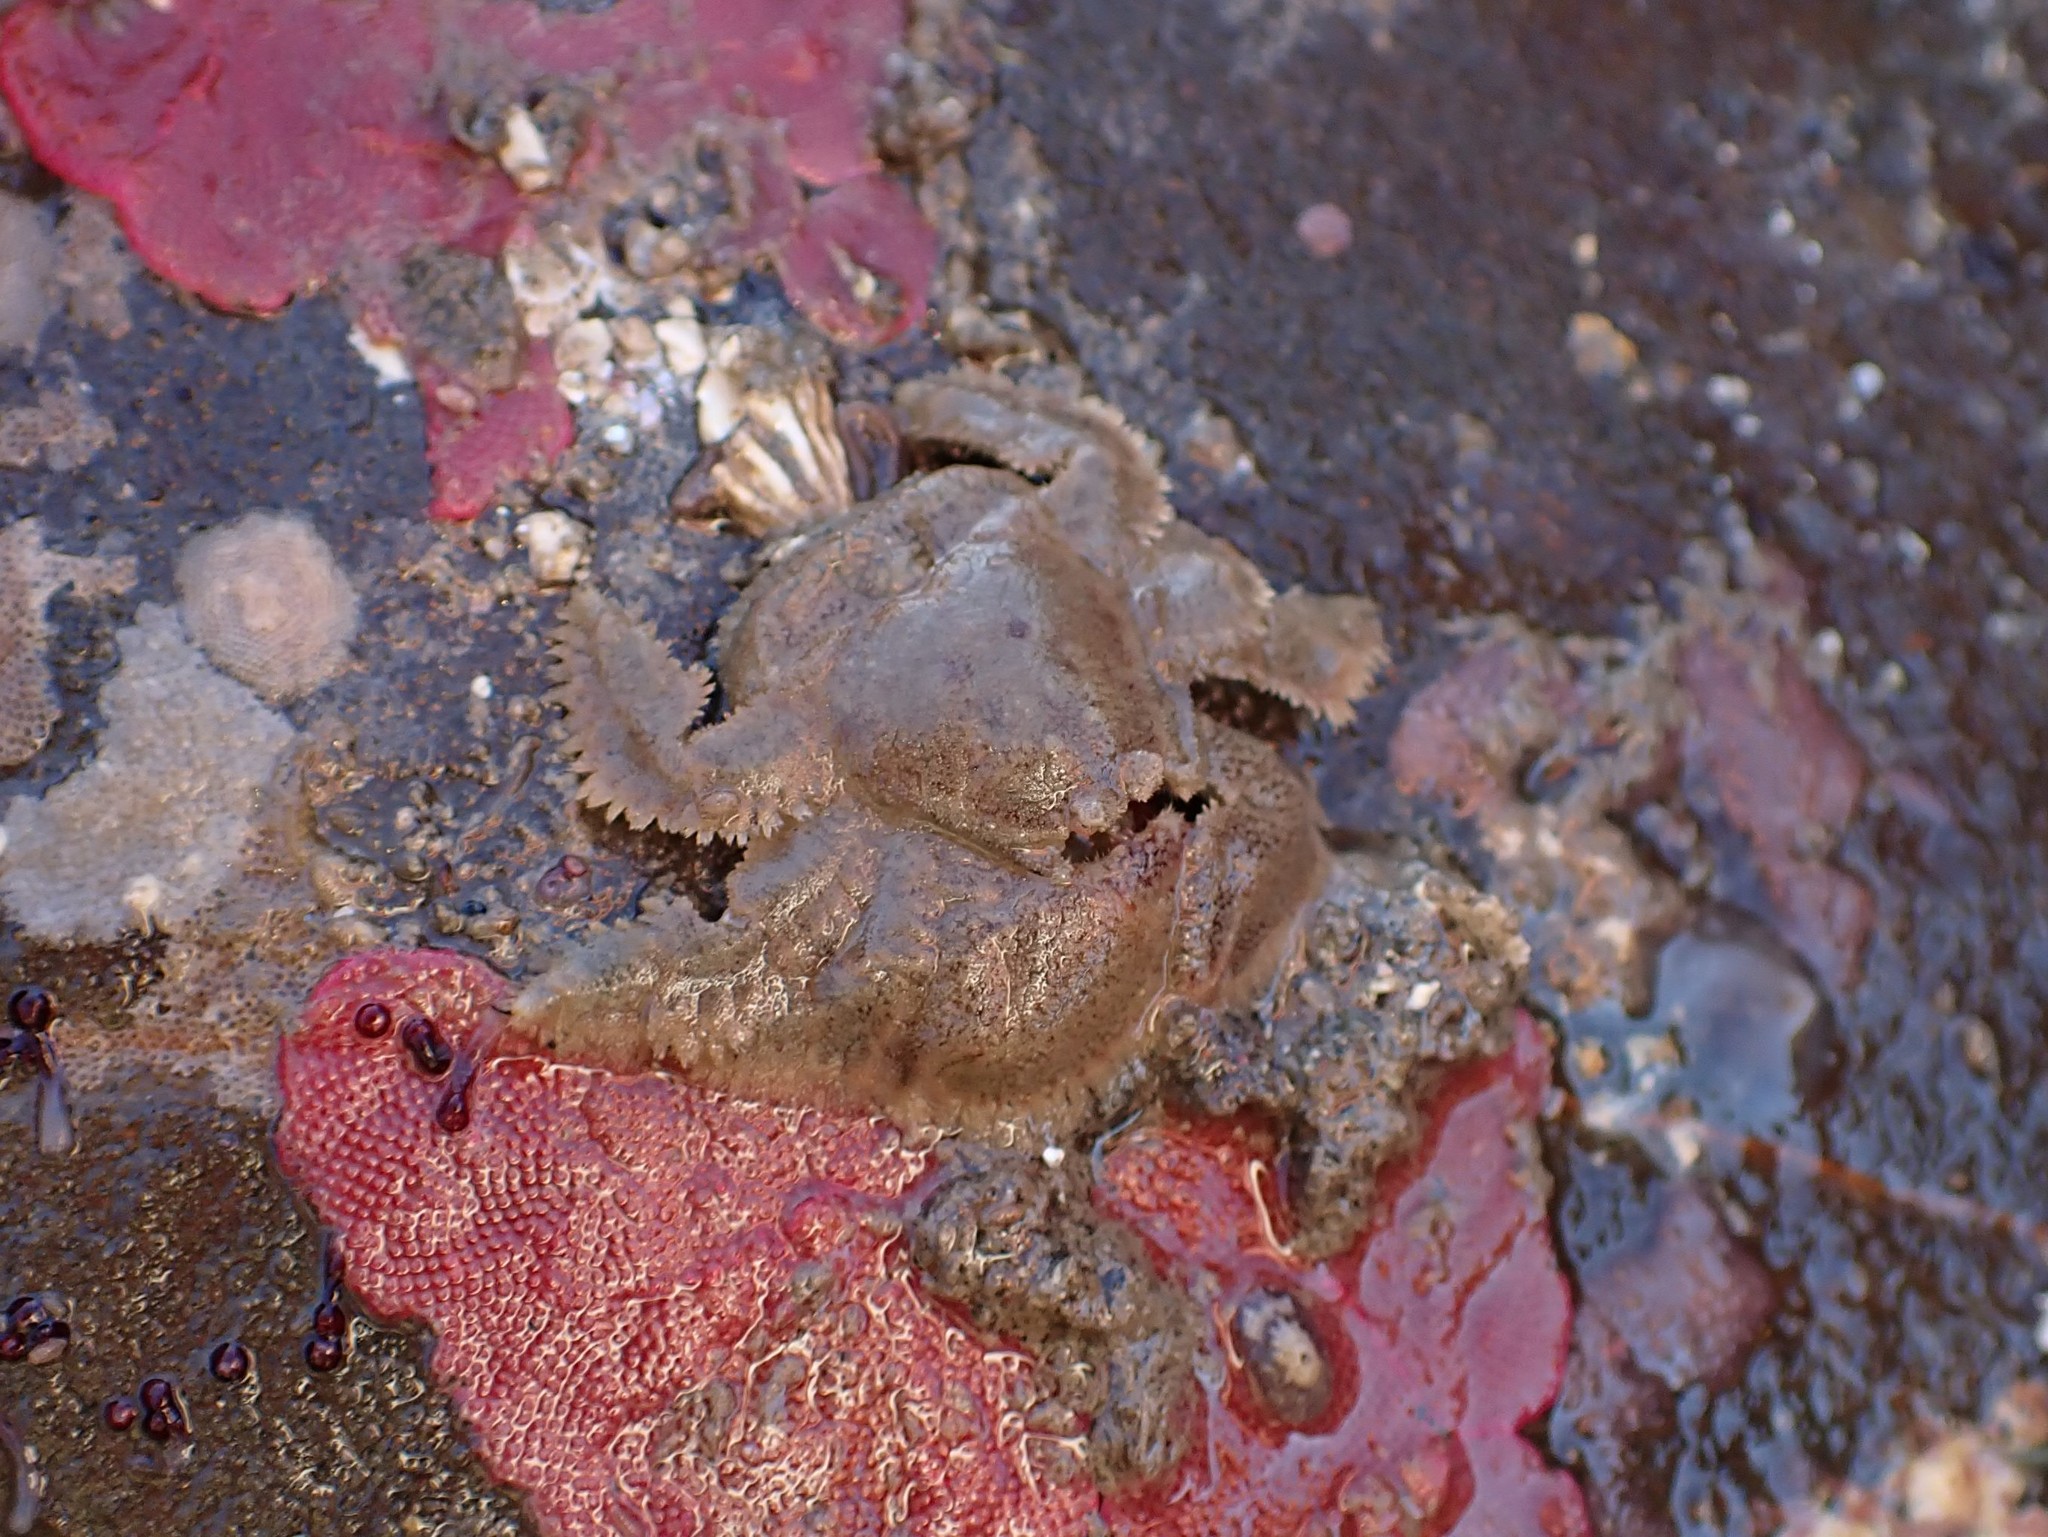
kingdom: Animalia
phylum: Arthropoda
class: Malacostraca
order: Decapoda
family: Hapalogastridae
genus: Hapalogaster
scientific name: Hapalogaster cavicauda
